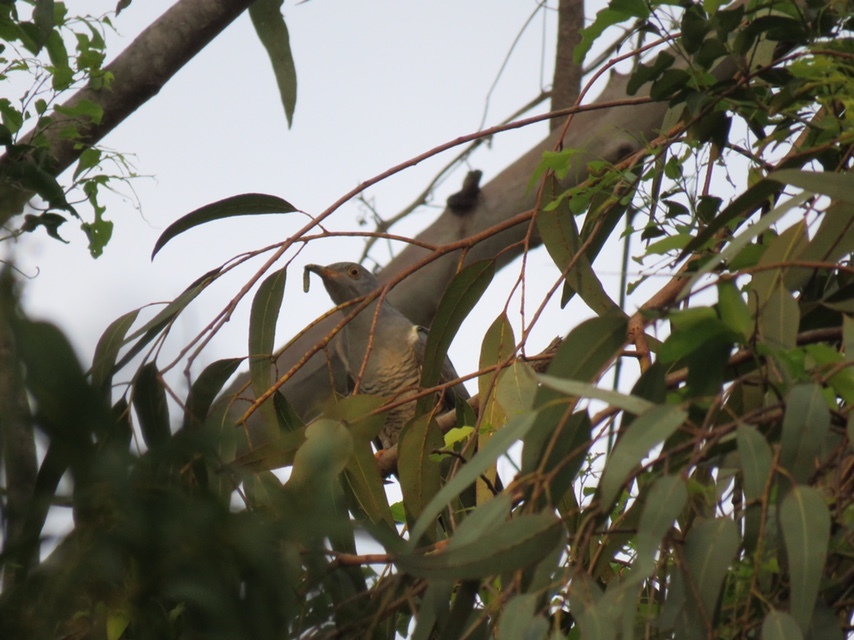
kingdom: Animalia
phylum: Chordata
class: Aves
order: Cuculiformes
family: Cuculidae
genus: Cuculus
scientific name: Cuculus canorus
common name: Common cuckoo
